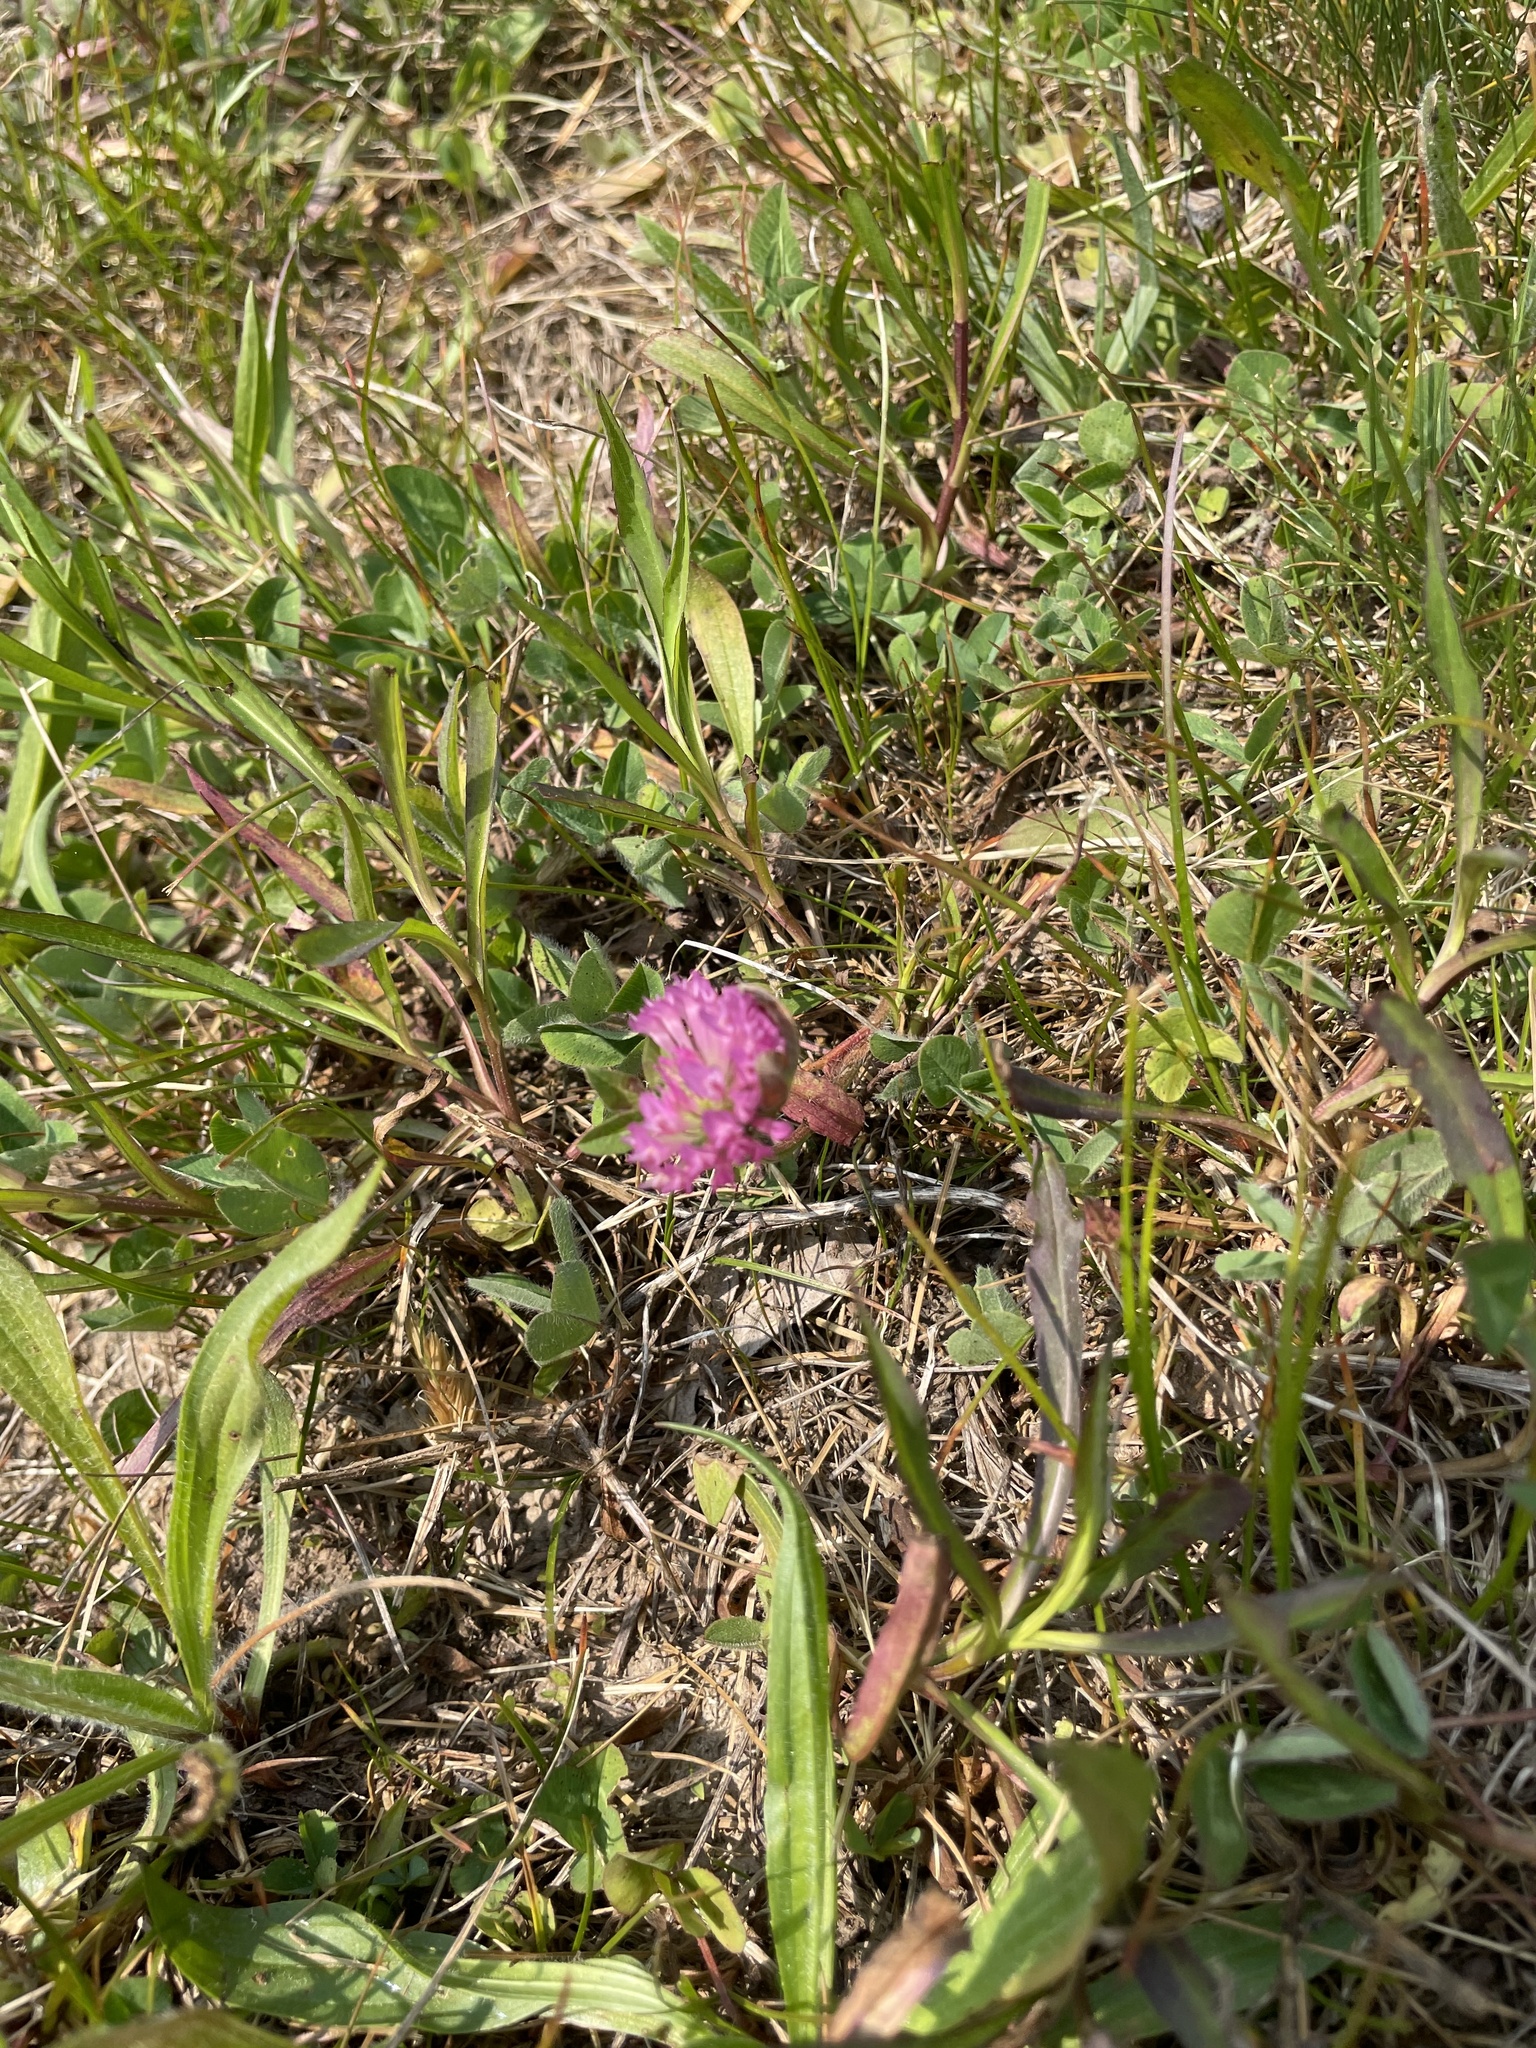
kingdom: Plantae
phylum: Tracheophyta
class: Magnoliopsida
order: Fabales
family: Fabaceae
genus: Trifolium
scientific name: Trifolium pratense
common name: Red clover
